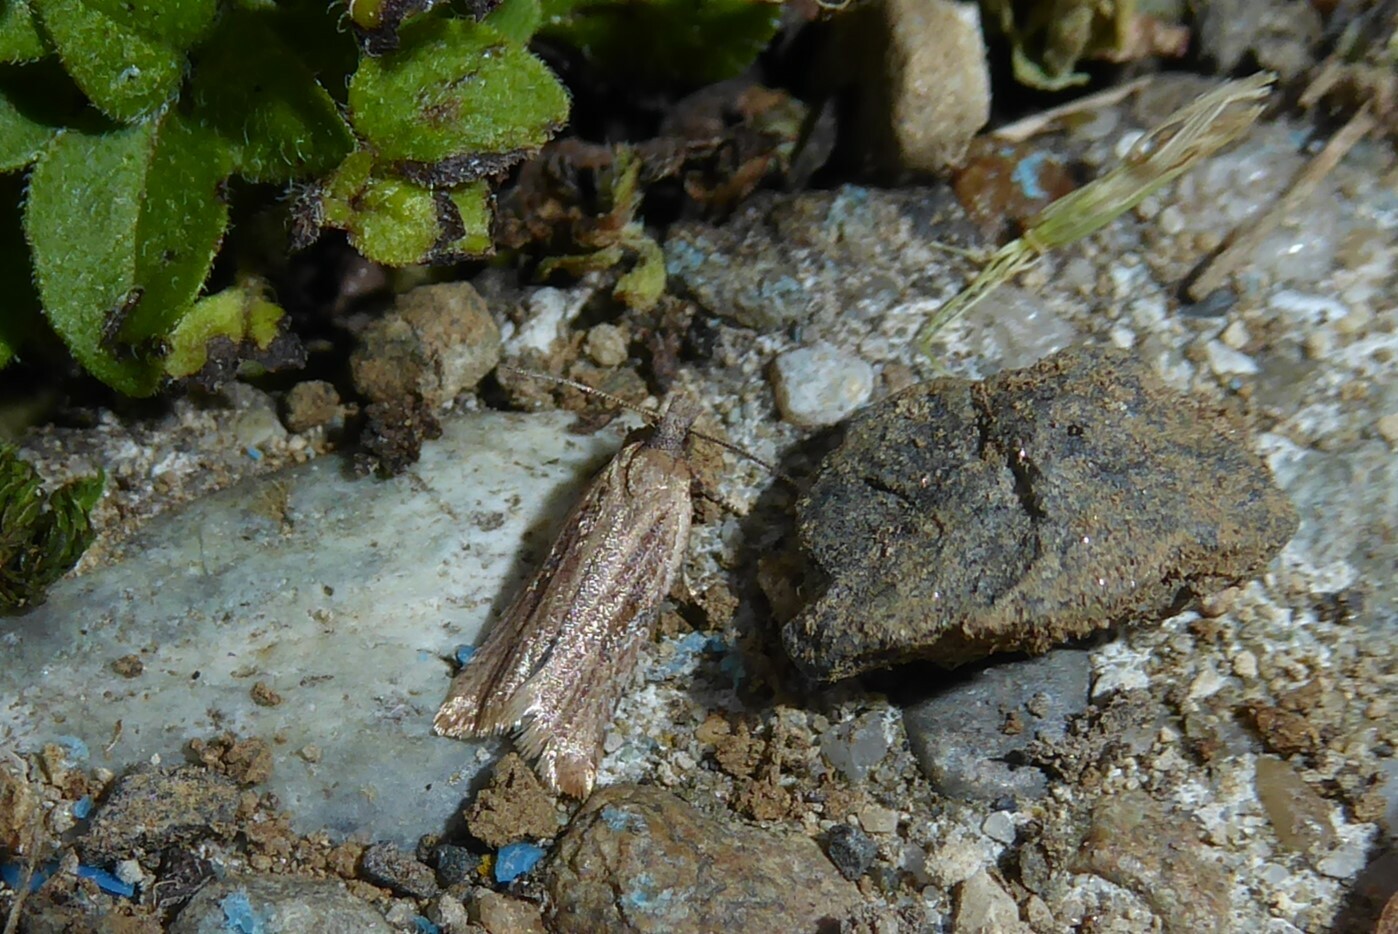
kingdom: Animalia
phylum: Arthropoda
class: Insecta
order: Lepidoptera
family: Tortricidae
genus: Capua
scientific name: Capua semiferana
